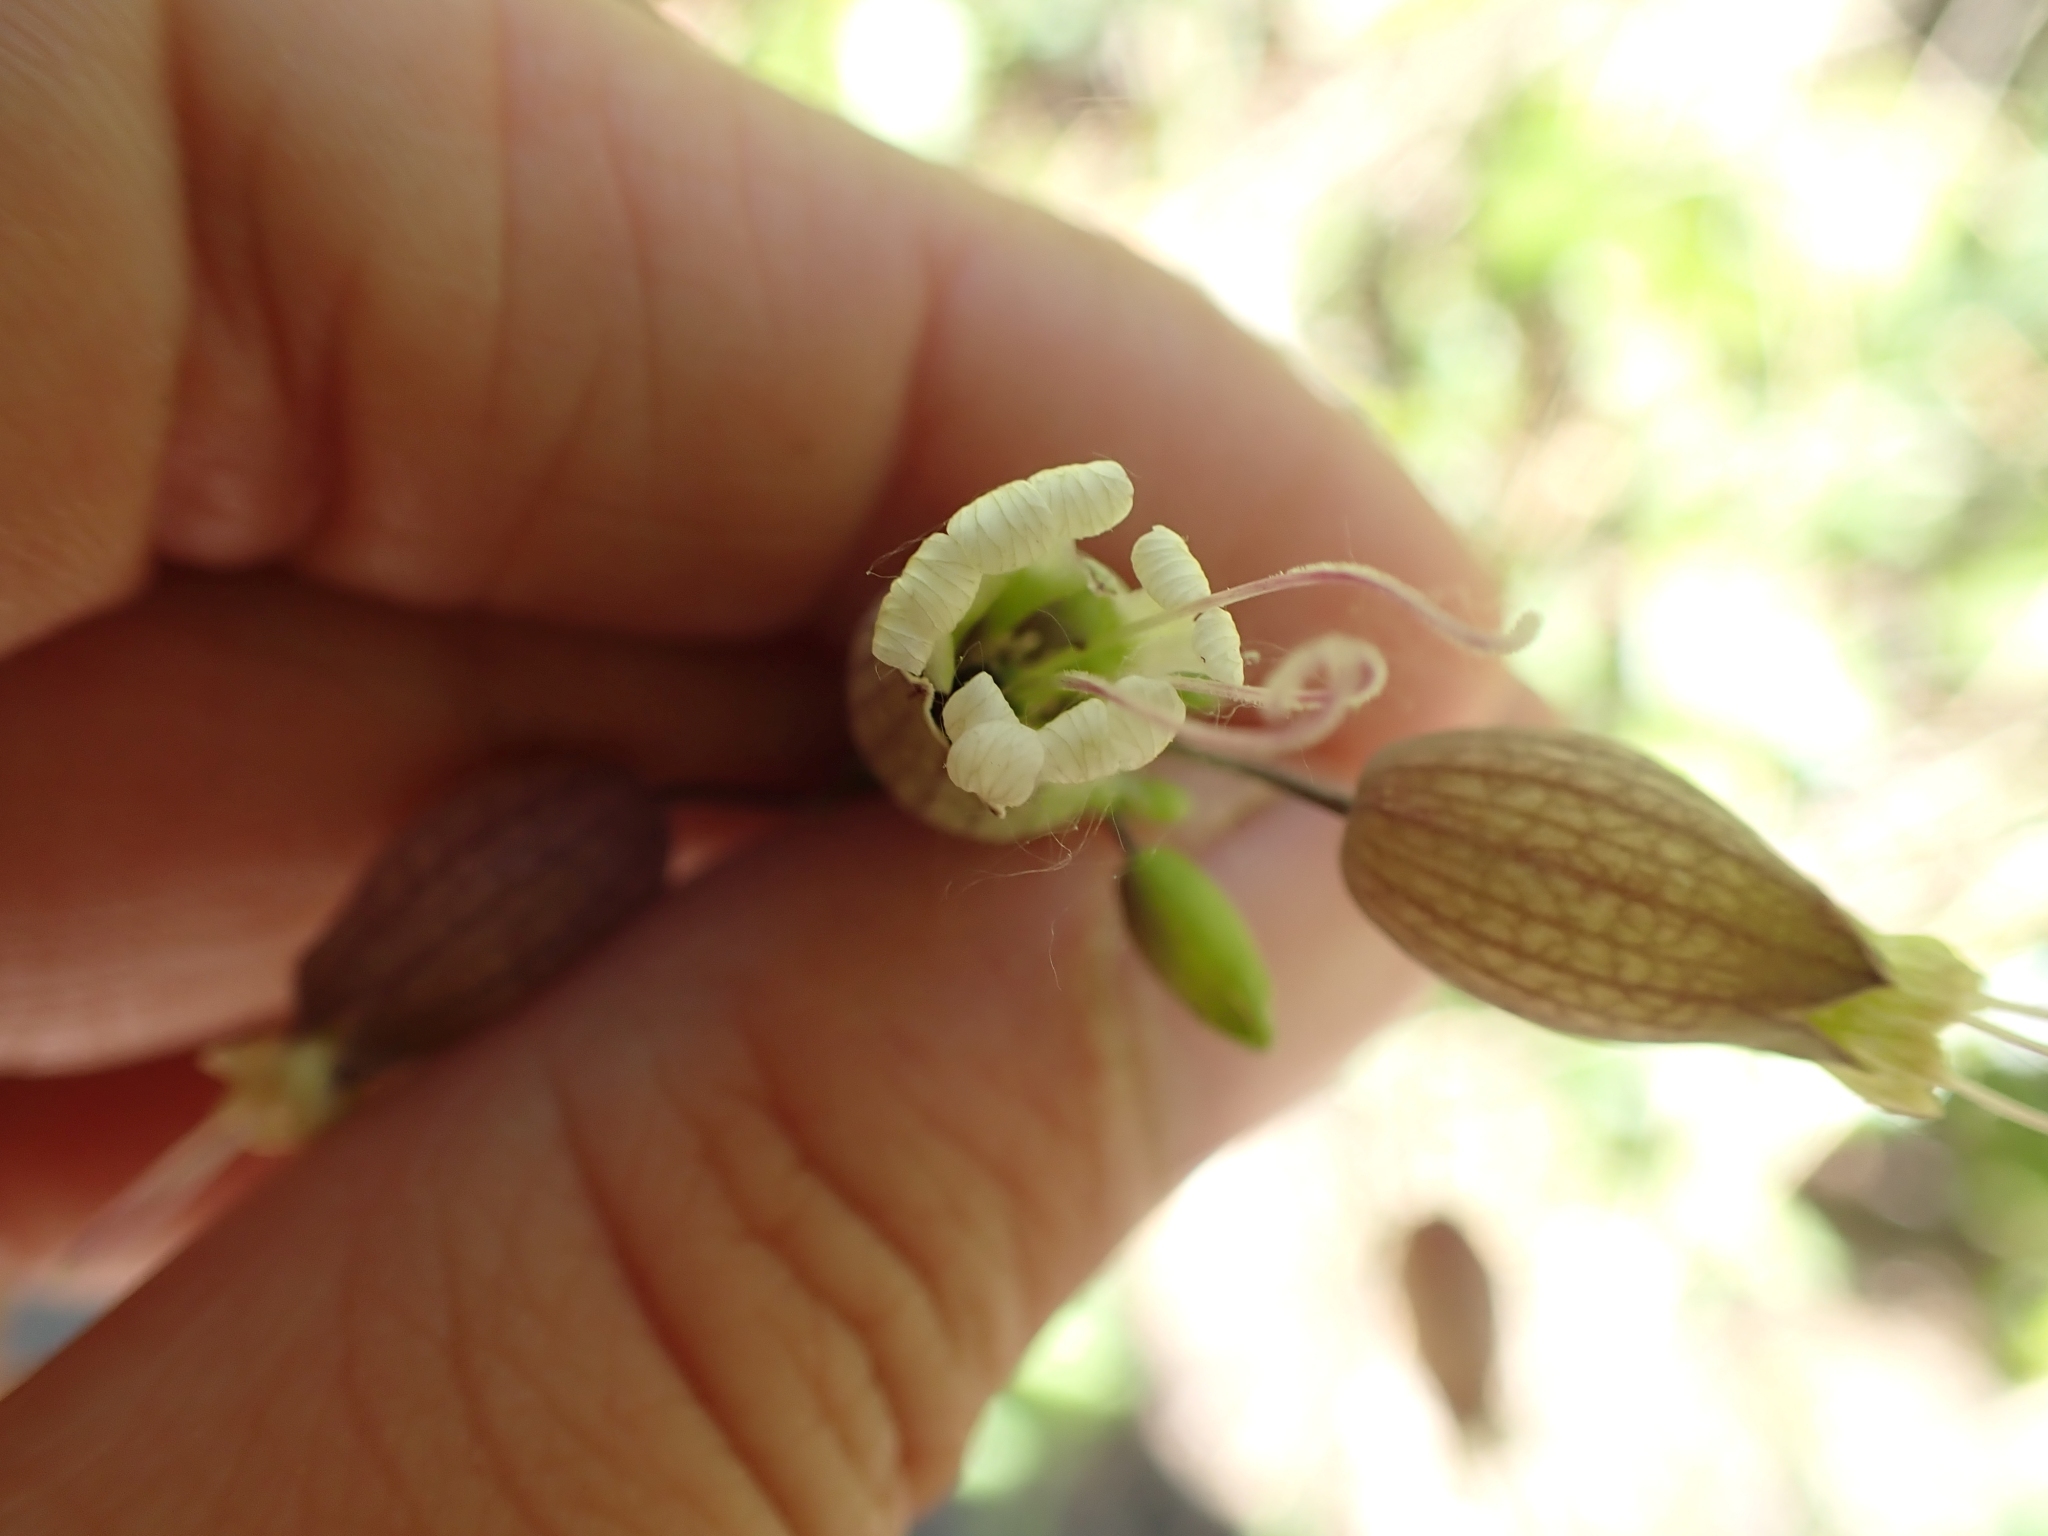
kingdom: Plantae
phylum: Tracheophyta
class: Magnoliopsida
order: Caryophyllales
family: Caryophyllaceae
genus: Silene
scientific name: Silene vulgaris
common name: Bladder campion
